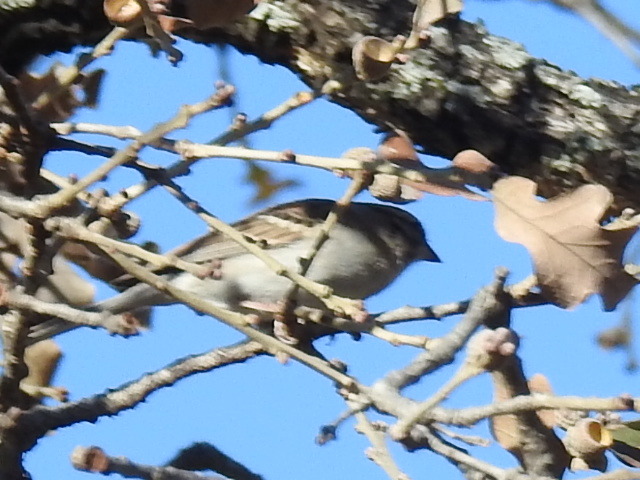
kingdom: Animalia
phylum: Chordata
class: Aves
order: Passeriformes
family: Passerellidae
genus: Spizella
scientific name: Spizella passerina
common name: Chipping sparrow
